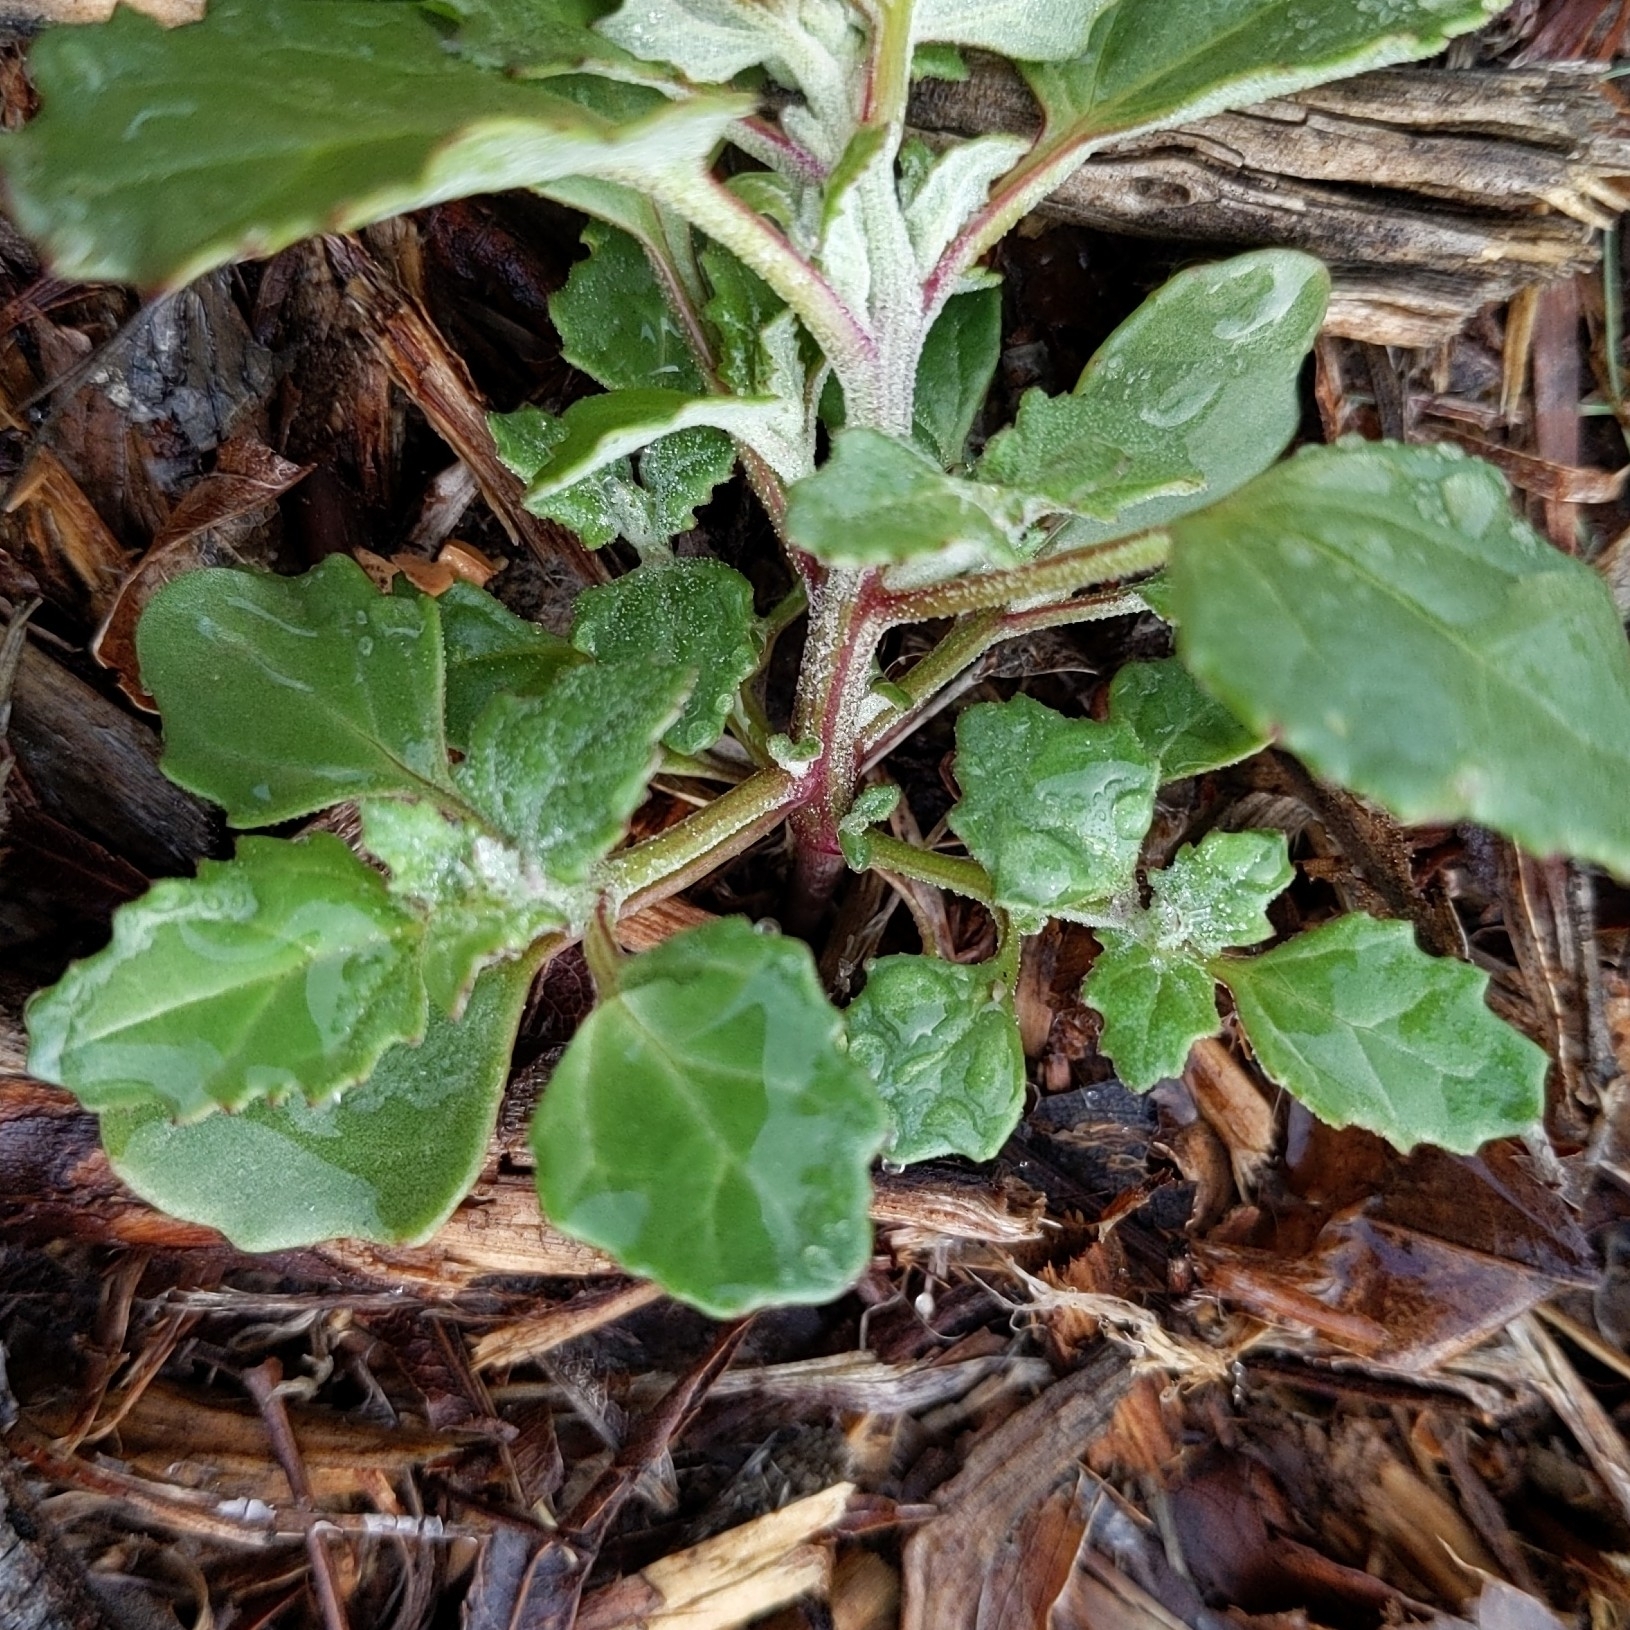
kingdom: Plantae
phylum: Tracheophyta
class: Magnoliopsida
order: Caryophyllales
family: Amaranthaceae
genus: Chenopodiastrum
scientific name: Chenopodiastrum murale
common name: Sowbane
